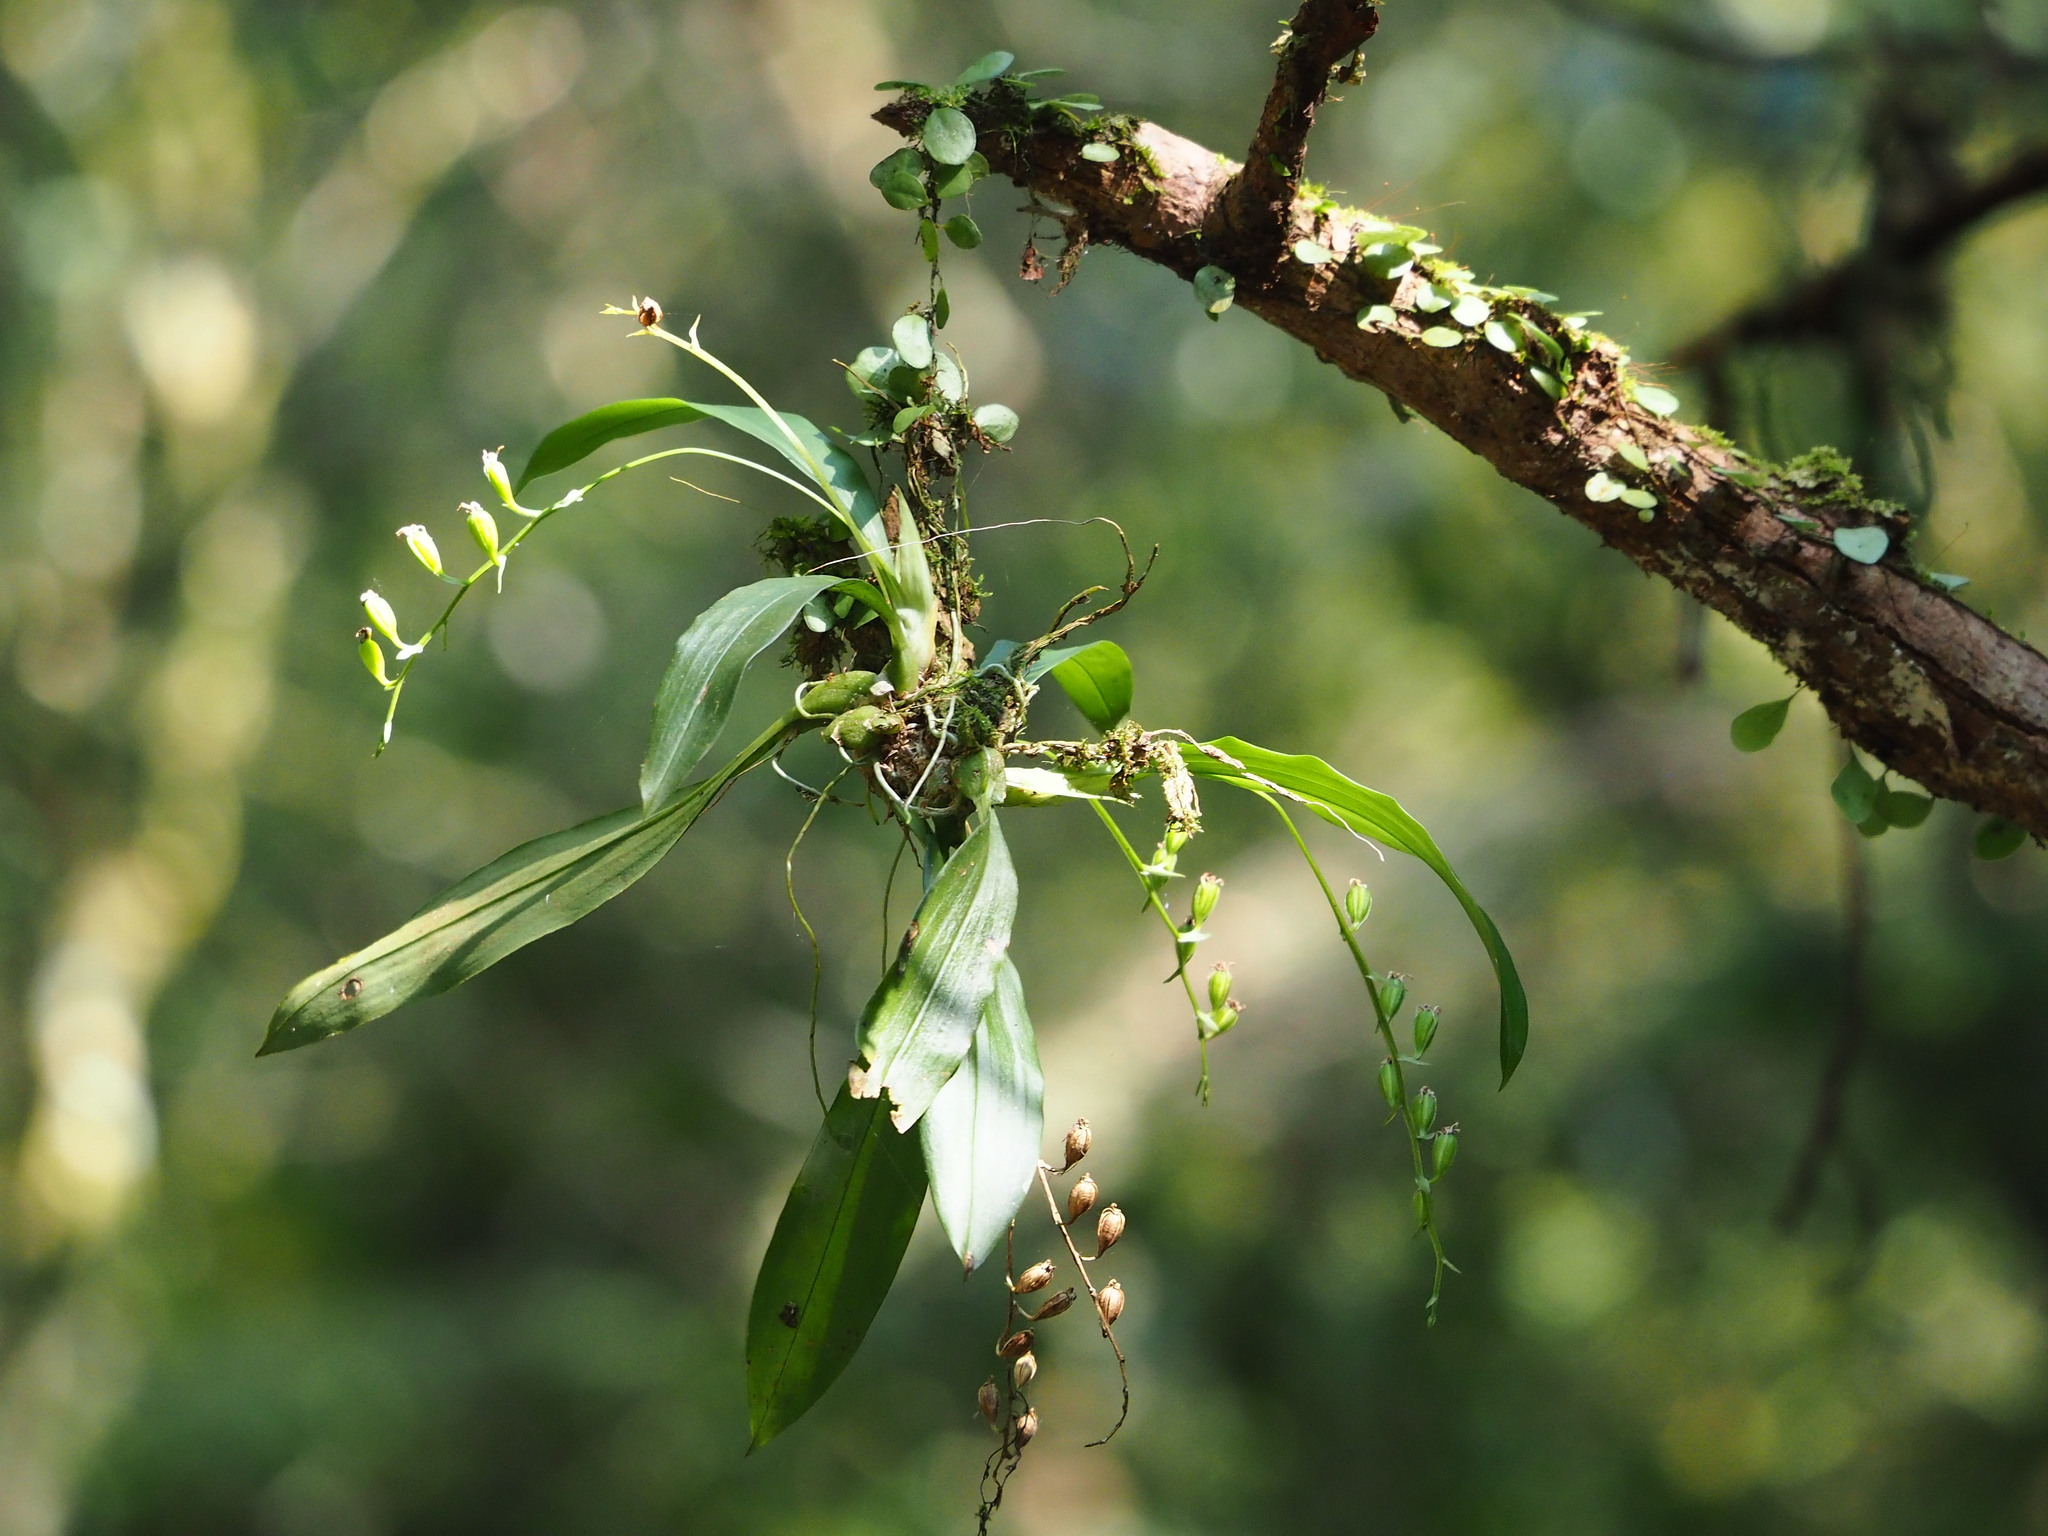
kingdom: Plantae
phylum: Tracheophyta
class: Liliopsida
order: Asparagales
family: Orchidaceae
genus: Liparis
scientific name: Liparis bootanensis
